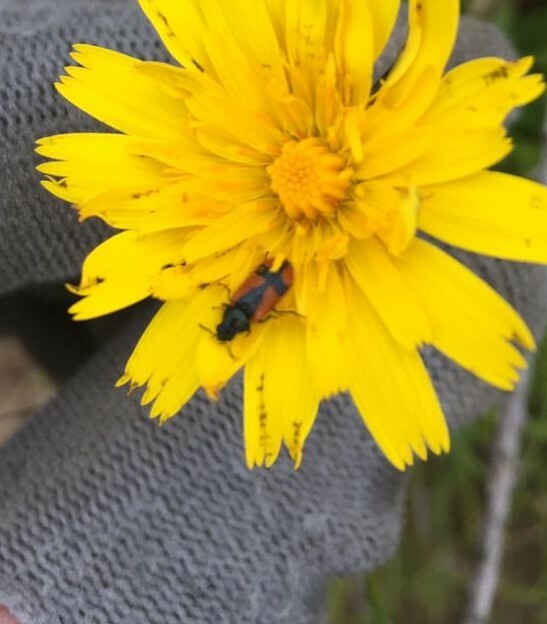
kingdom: Animalia
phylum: Arthropoda
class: Insecta
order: Coleoptera
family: Melyridae
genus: Arthrobrachus
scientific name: Arthrobrachus nigromaculatus
